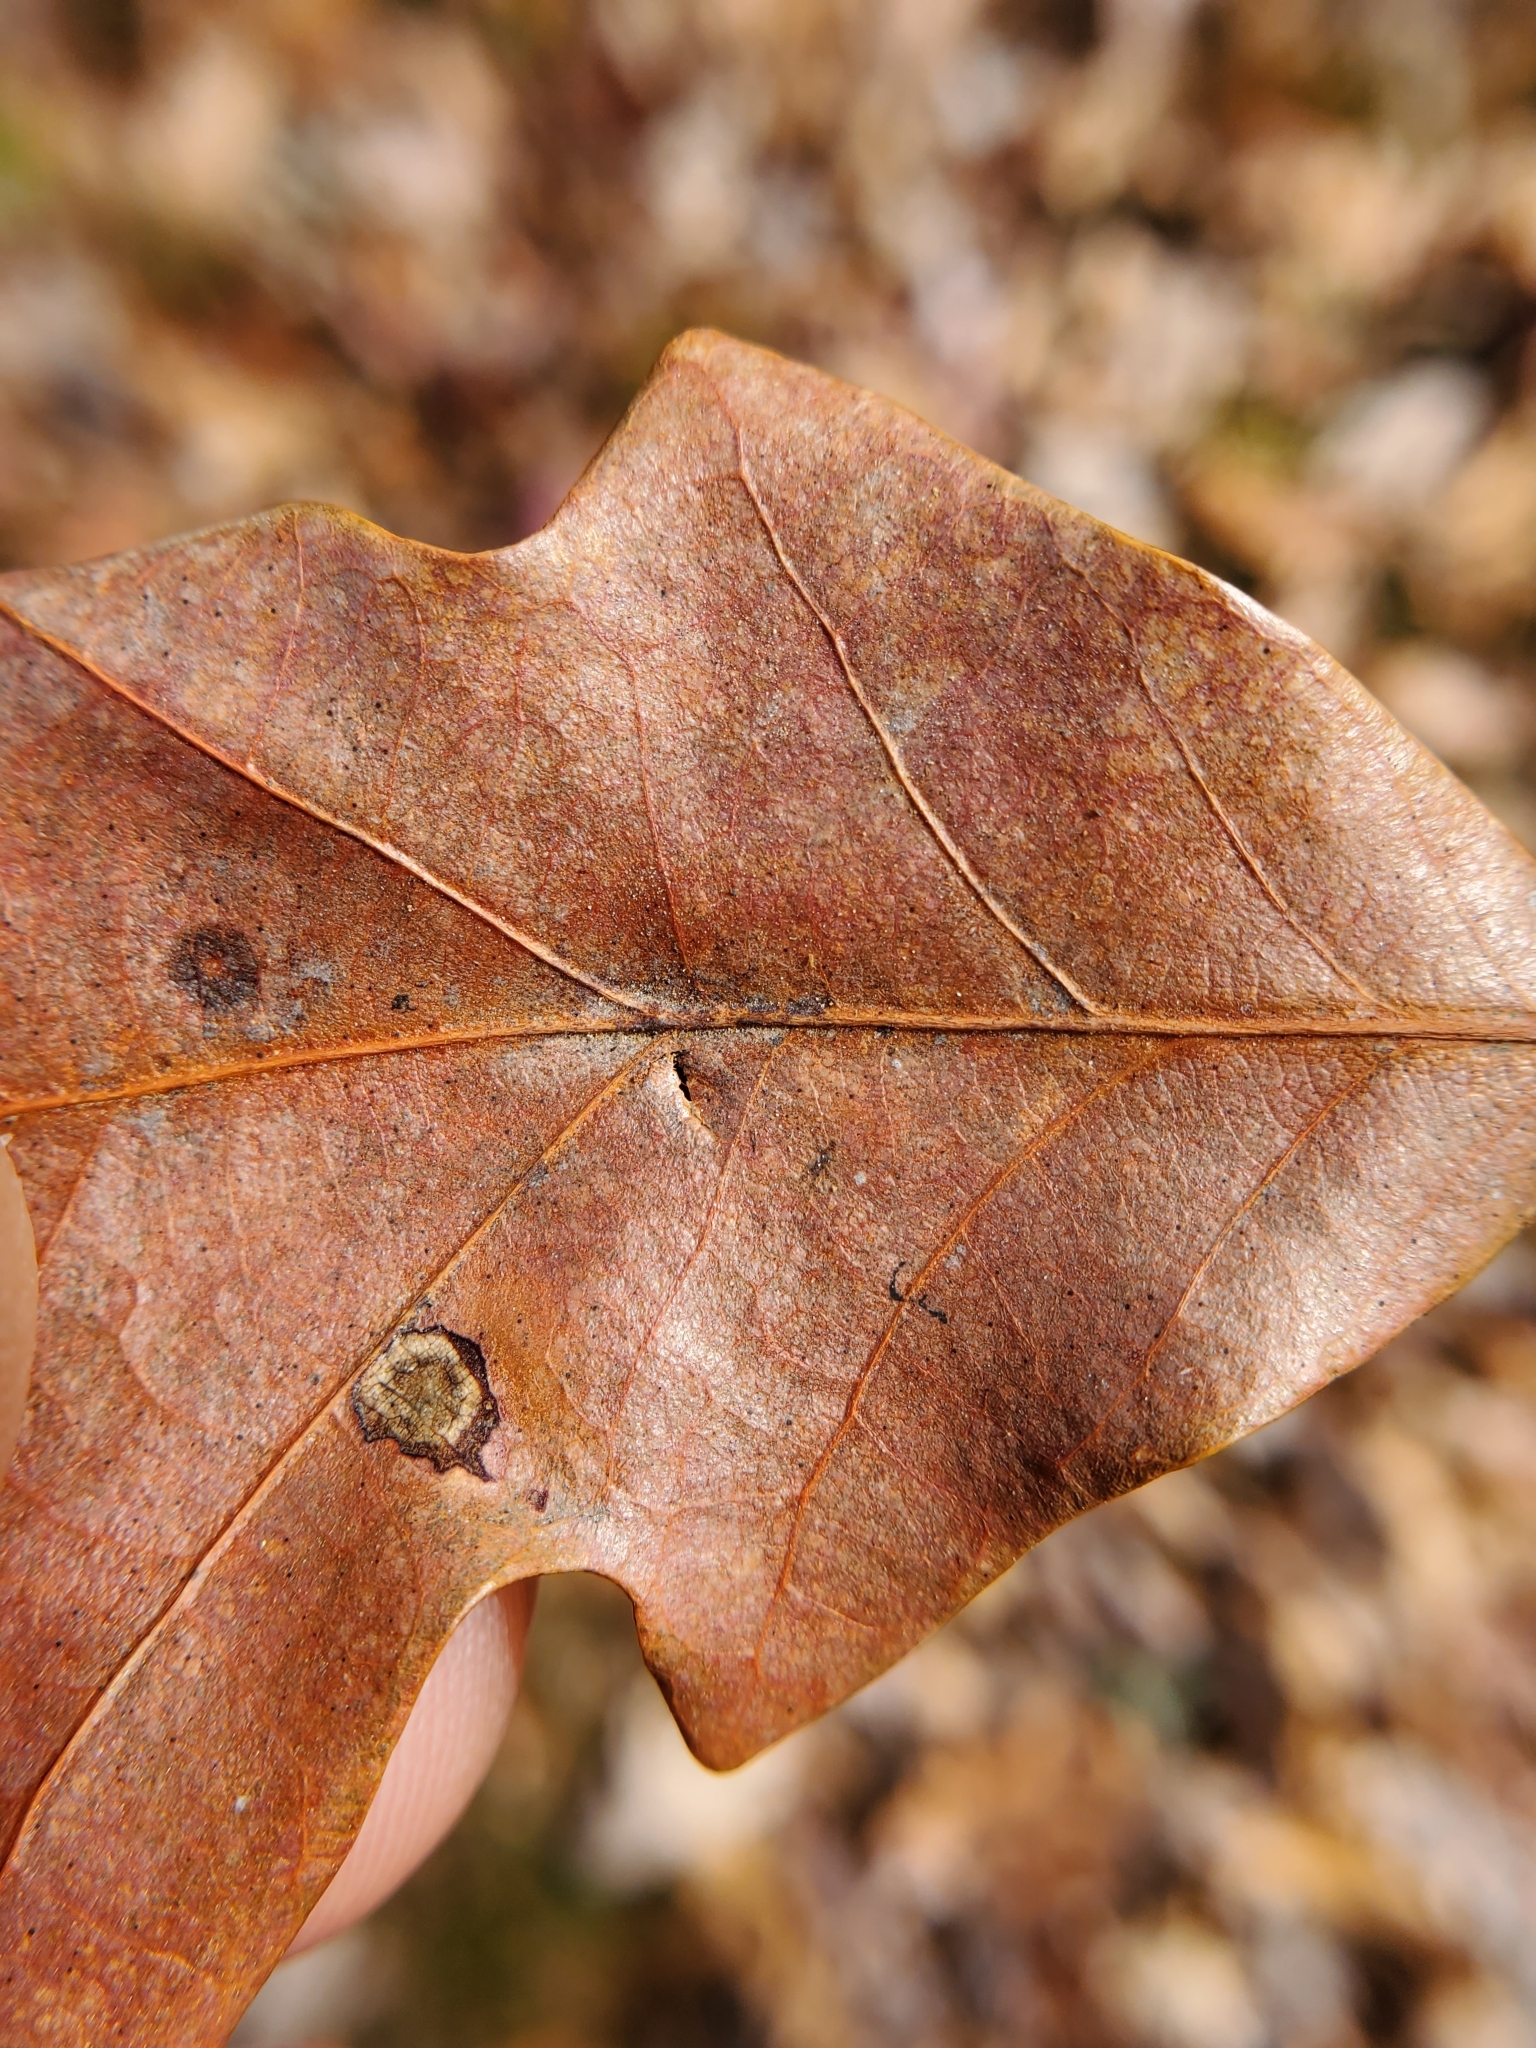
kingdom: Animalia
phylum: Arthropoda
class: Insecta
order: Hymenoptera
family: Cynipidae
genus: Andricus
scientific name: Andricus
